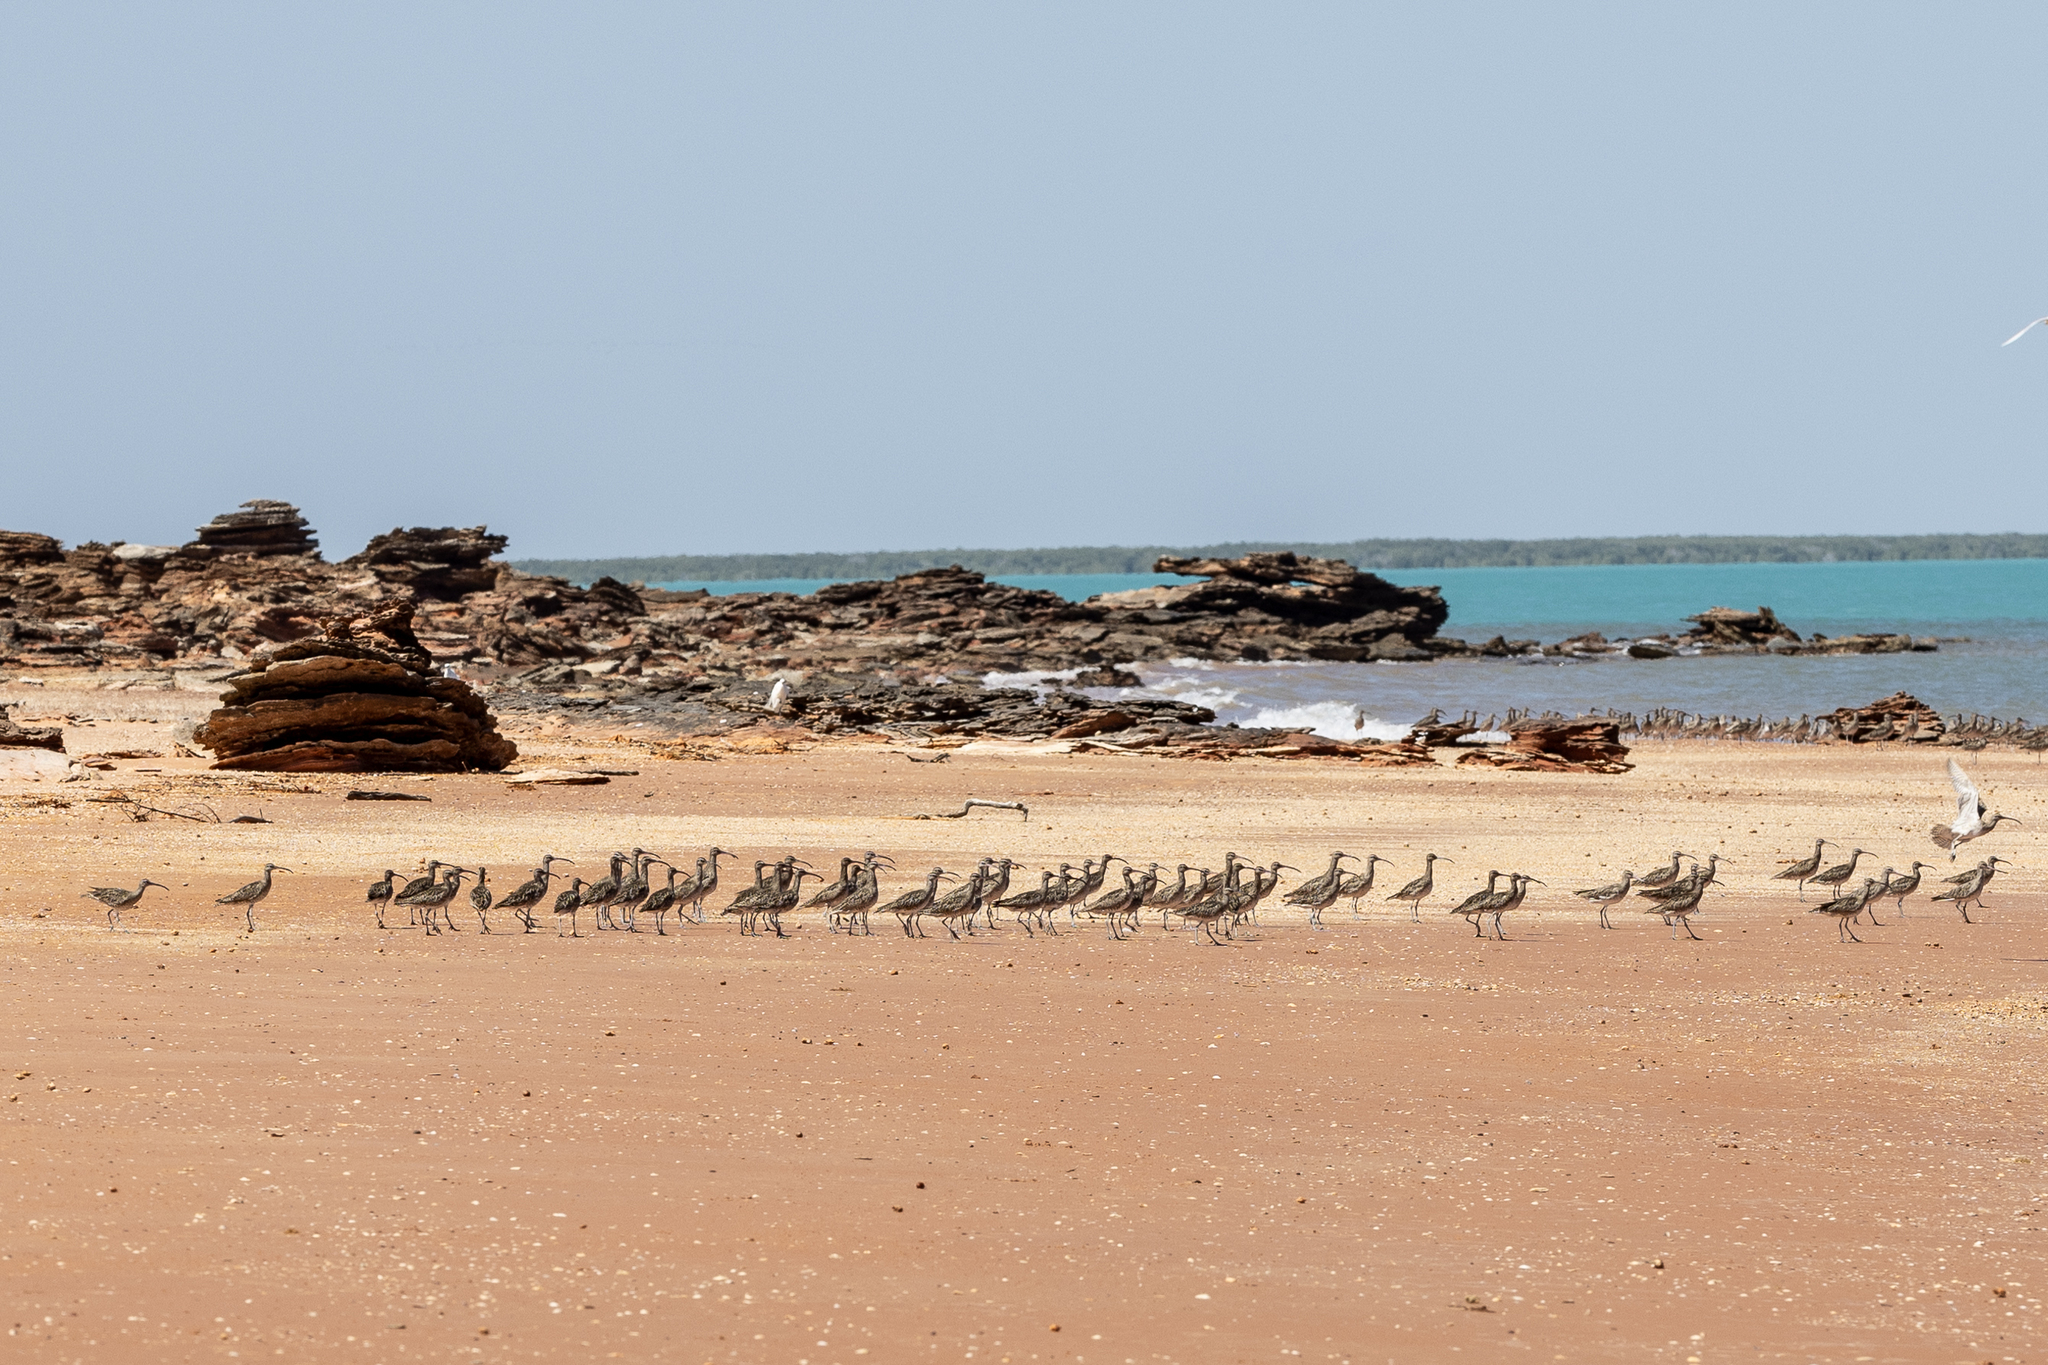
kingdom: Animalia
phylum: Chordata
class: Aves
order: Charadriiformes
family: Scolopacidae
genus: Numenius
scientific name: Numenius phaeopus
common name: Whimbrel
